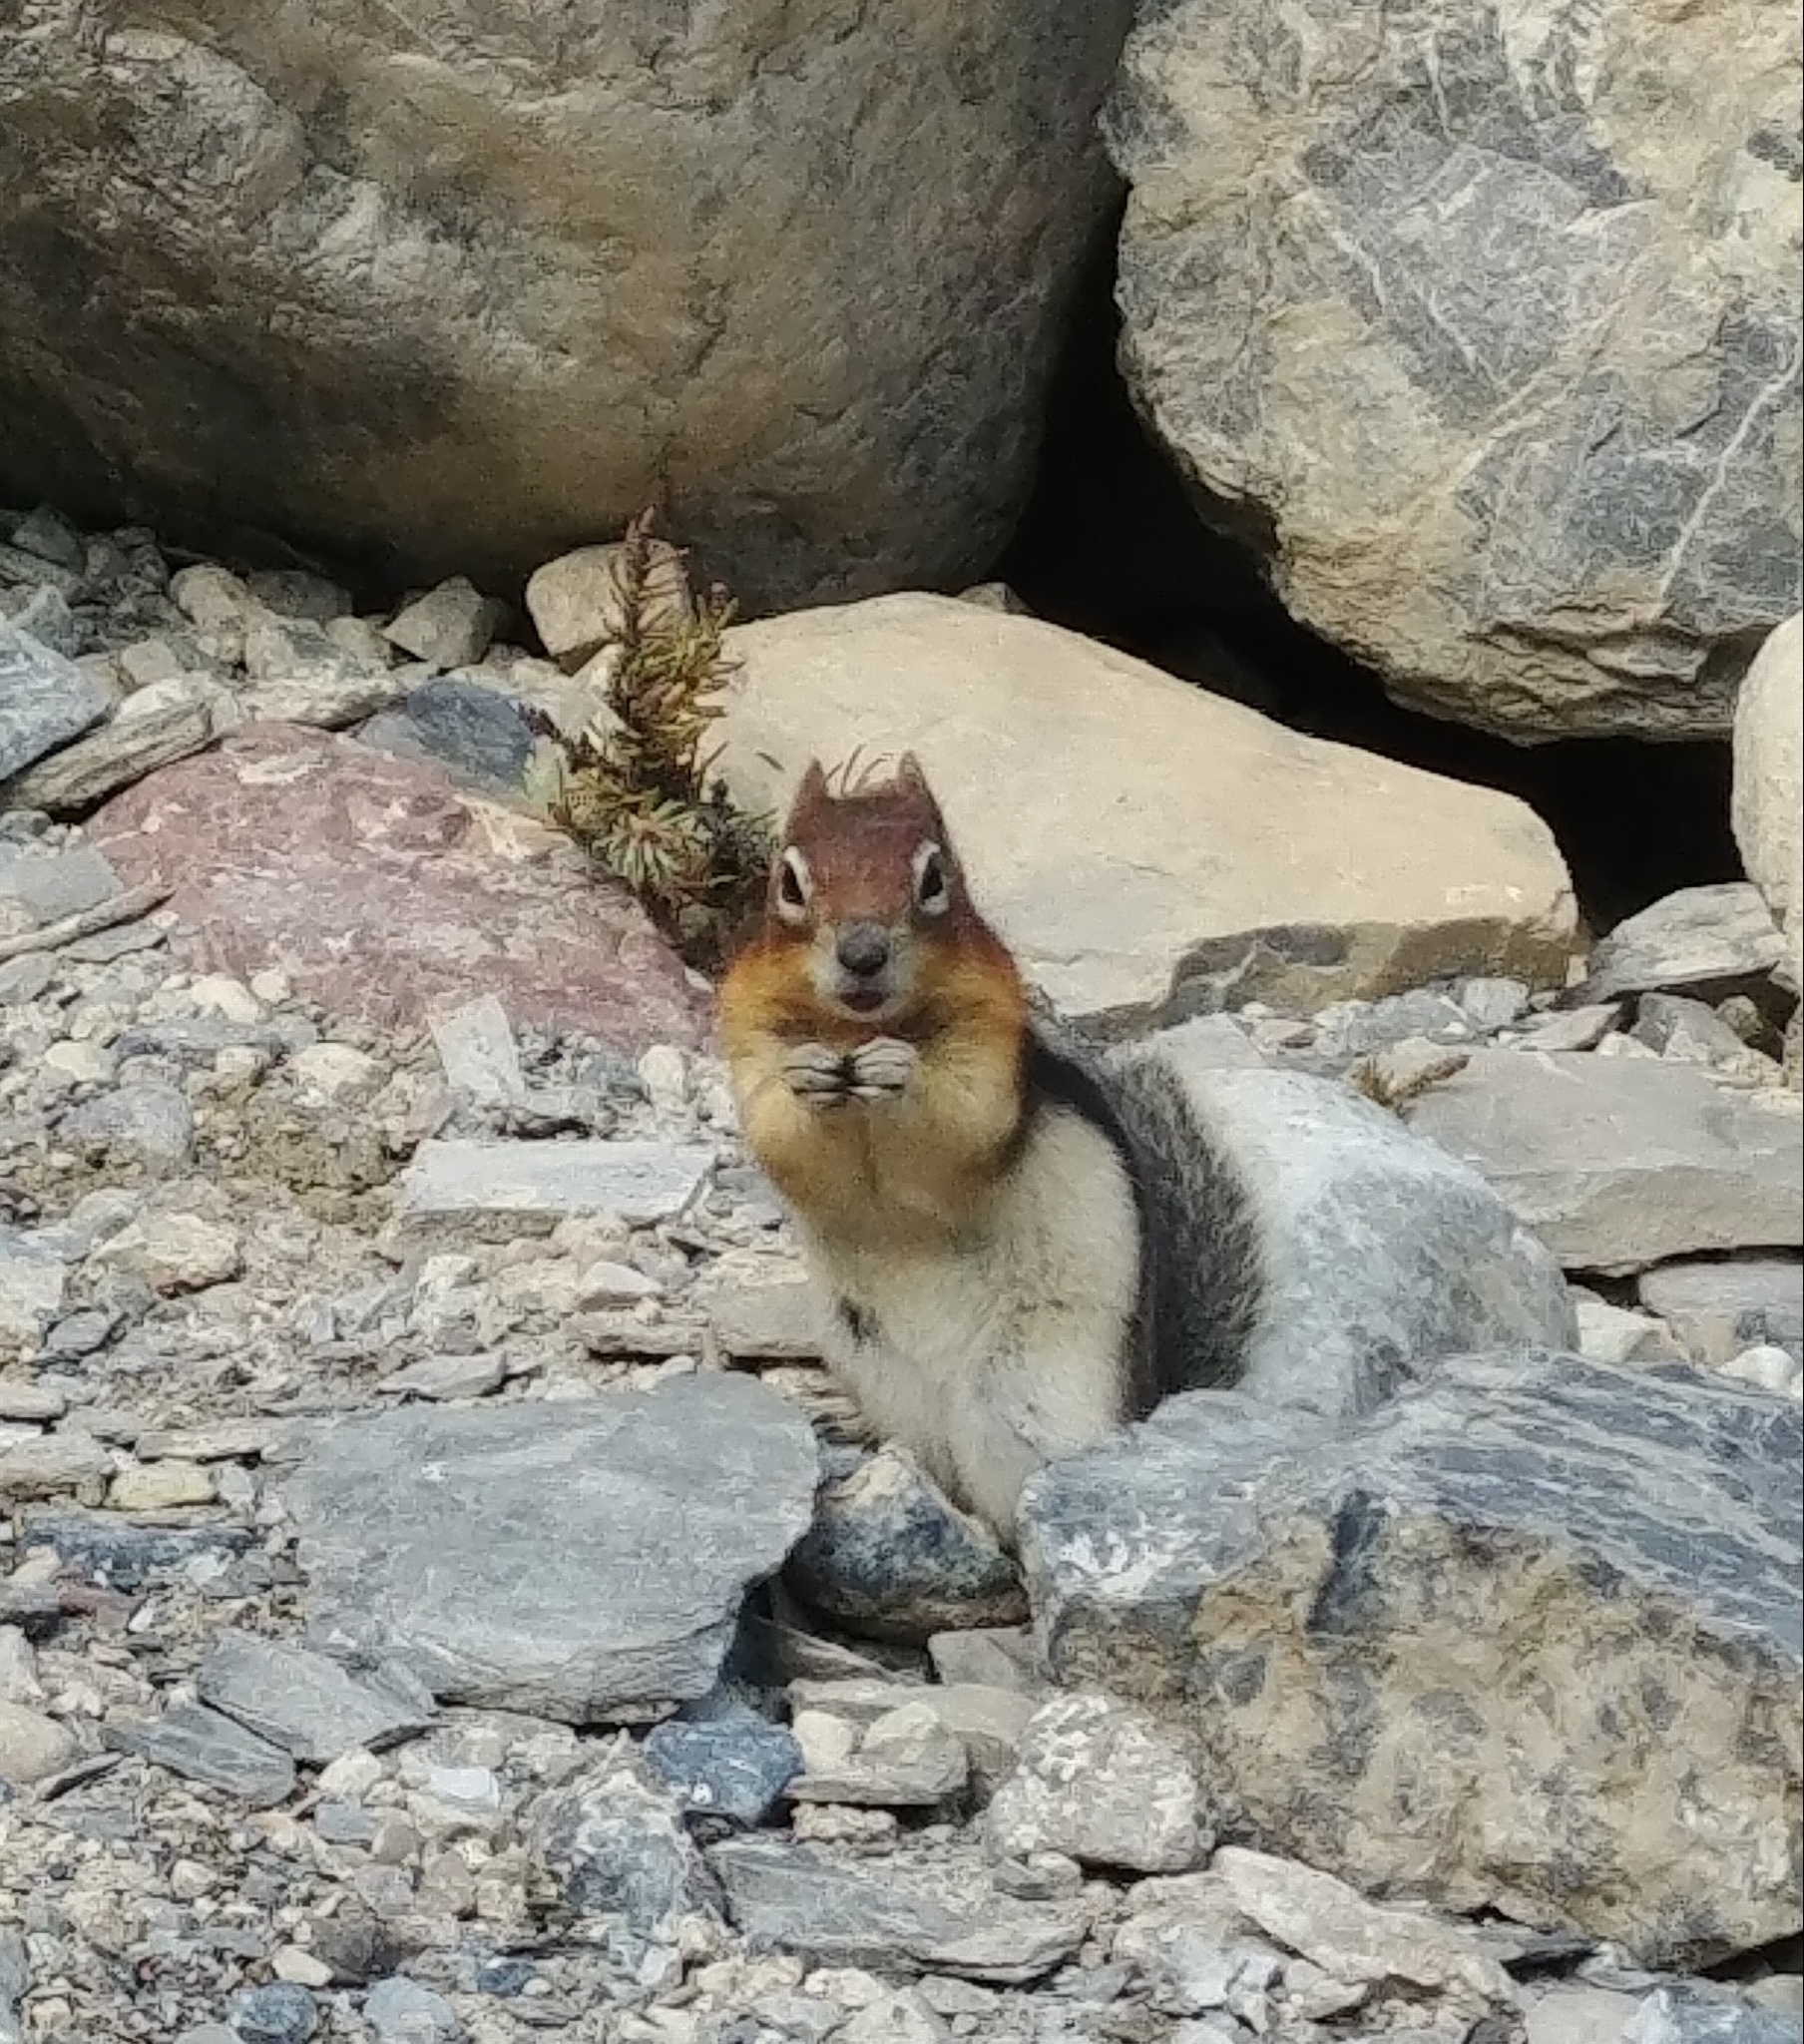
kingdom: Animalia
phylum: Chordata
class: Mammalia
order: Rodentia
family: Sciuridae
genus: Callospermophilus
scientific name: Callospermophilus lateralis
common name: Golden-mantled ground squirrel
